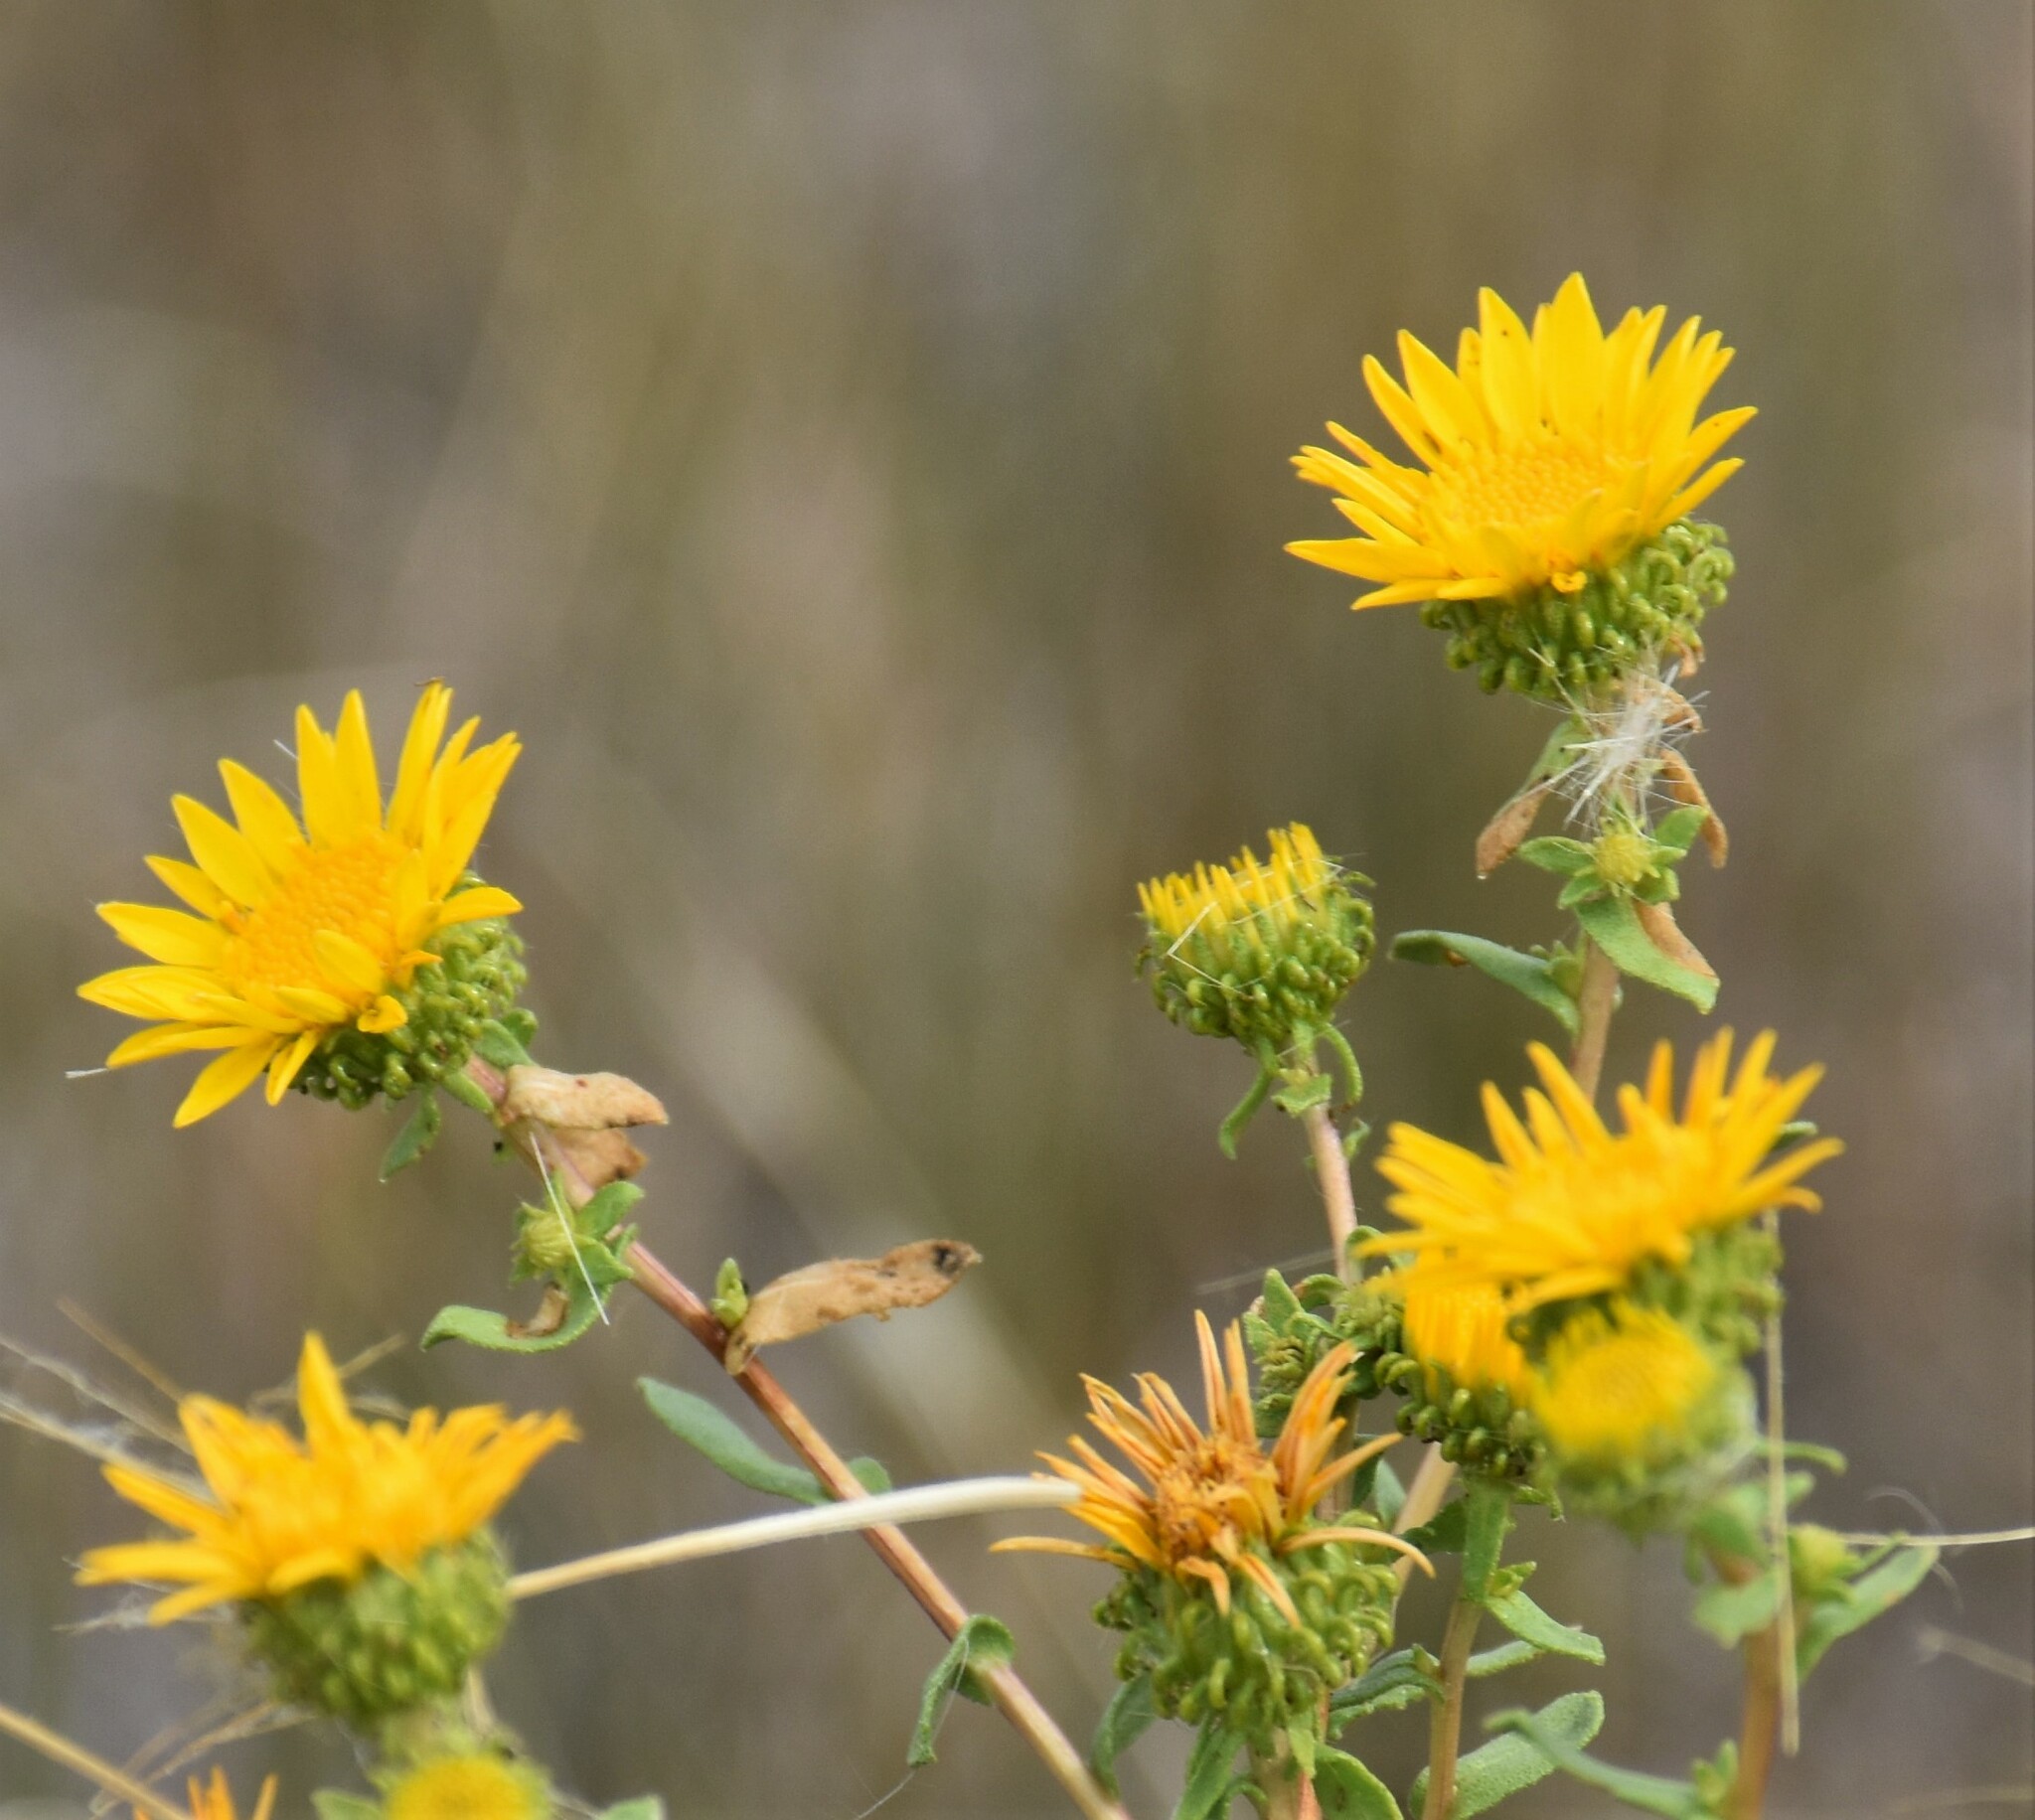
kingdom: Plantae
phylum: Tracheophyta
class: Magnoliopsida
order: Asterales
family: Asteraceae
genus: Grindelia
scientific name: Grindelia squarrosa
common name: Curly-cup gumweed
